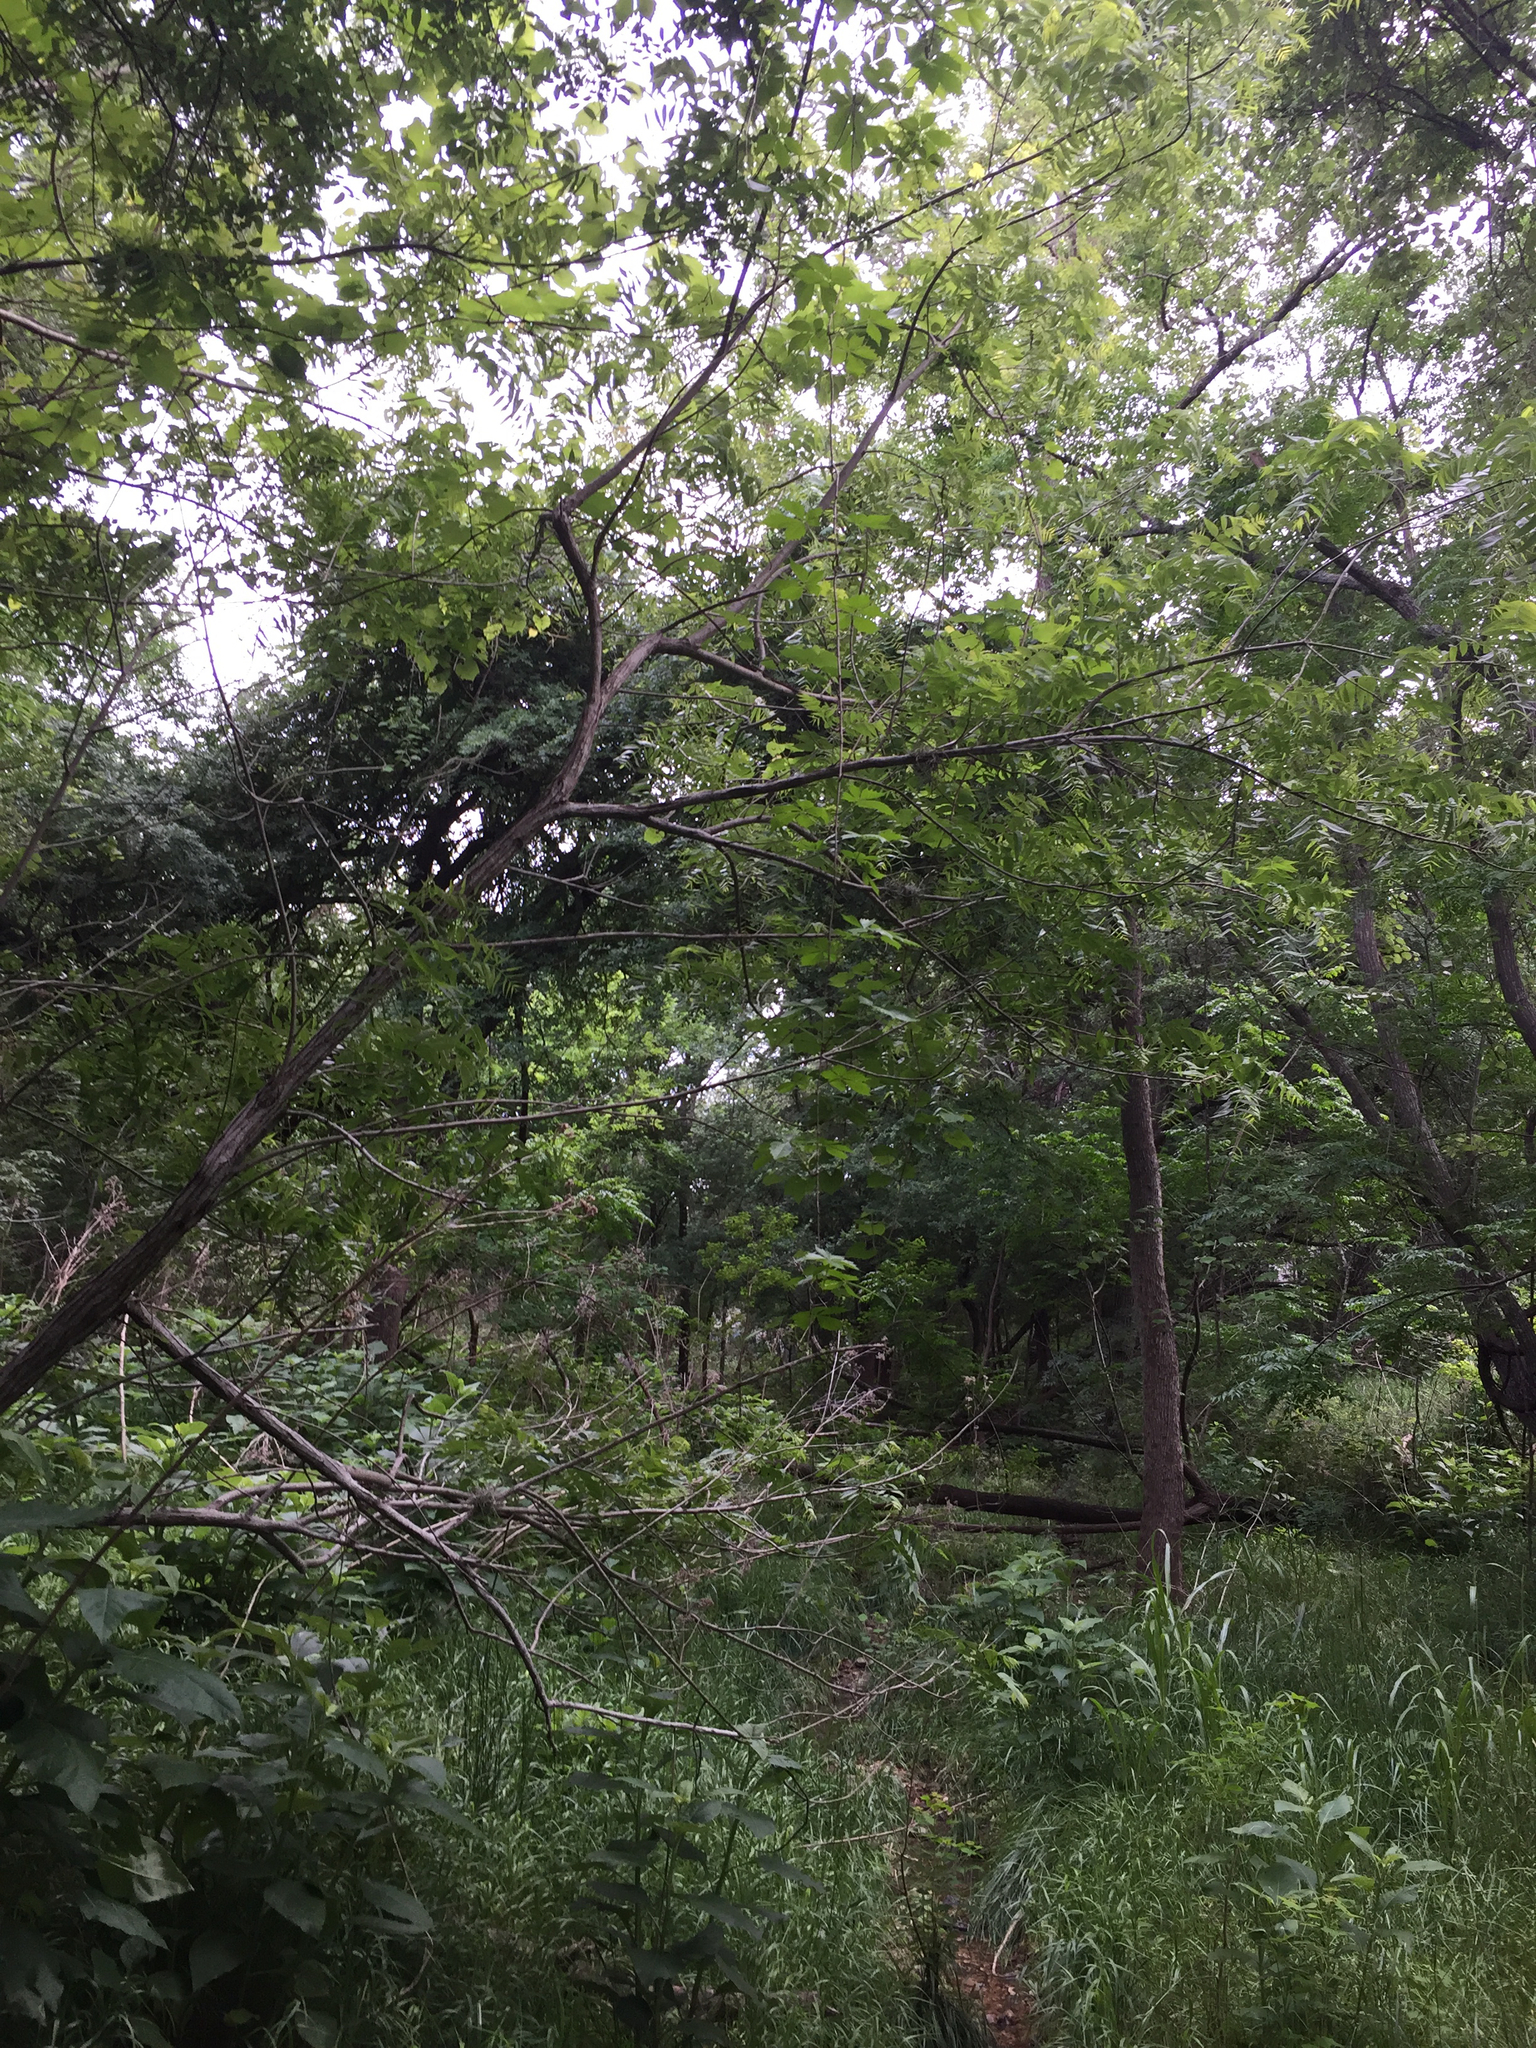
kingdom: Plantae
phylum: Tracheophyta
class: Magnoliopsida
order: Fagales
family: Juglandaceae
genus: Juglans
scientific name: Juglans microcarpa
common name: Texas walnut
